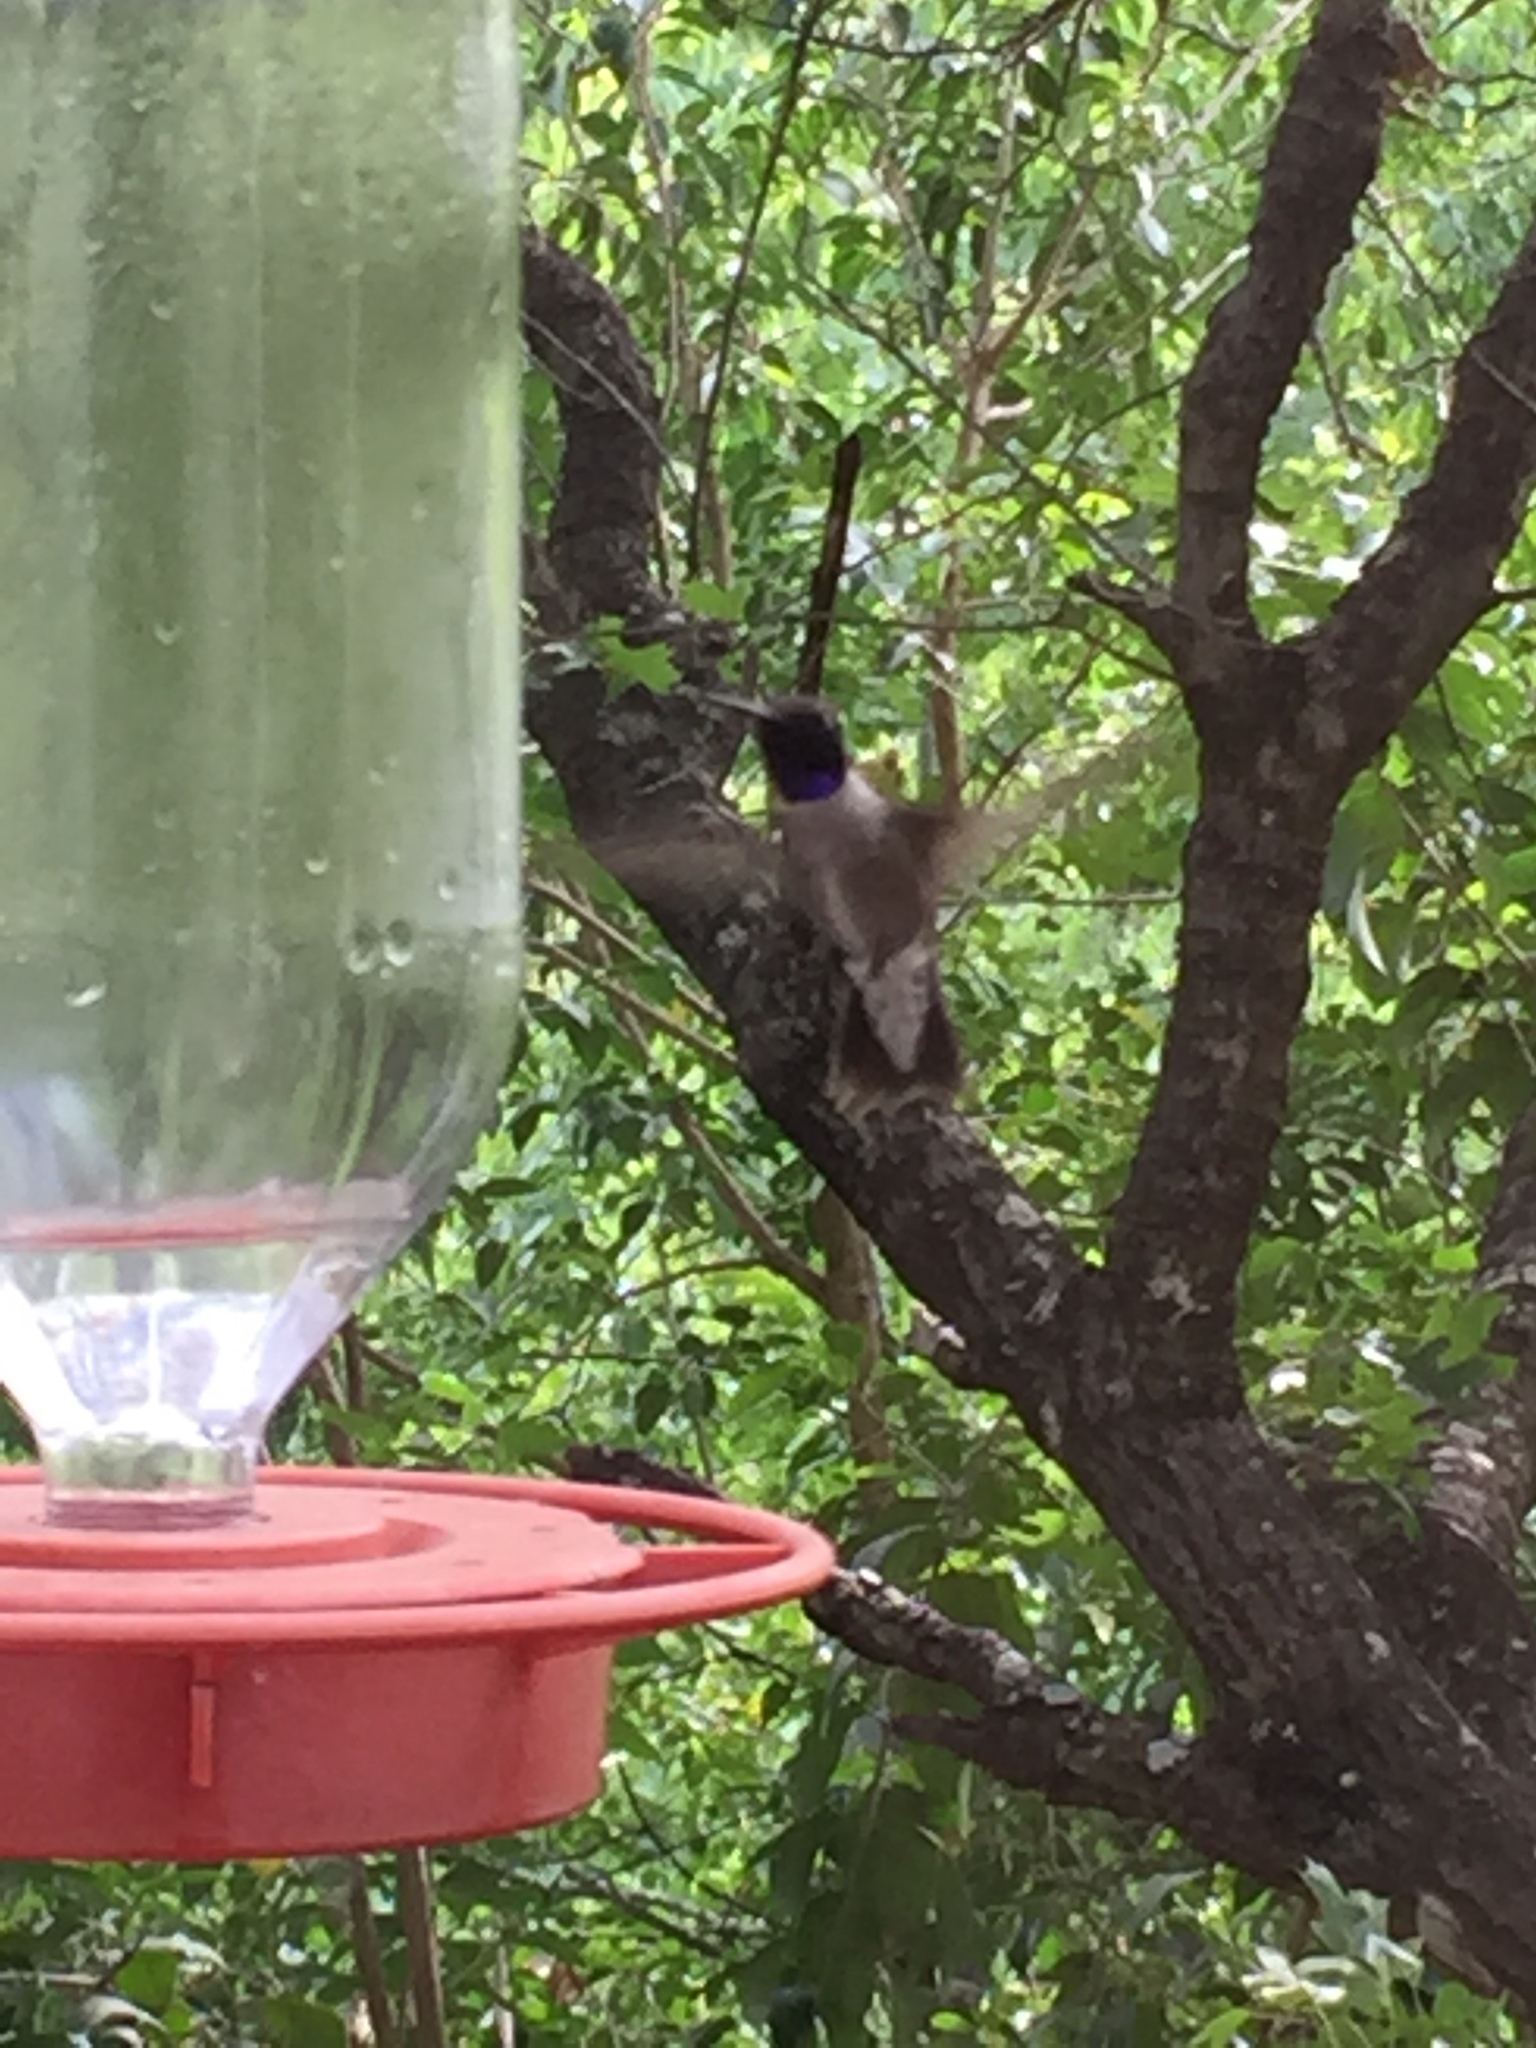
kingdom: Animalia
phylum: Chordata
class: Aves
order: Apodiformes
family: Trochilidae
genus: Archilochus
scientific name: Archilochus alexandri
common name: Black-chinned hummingbird
